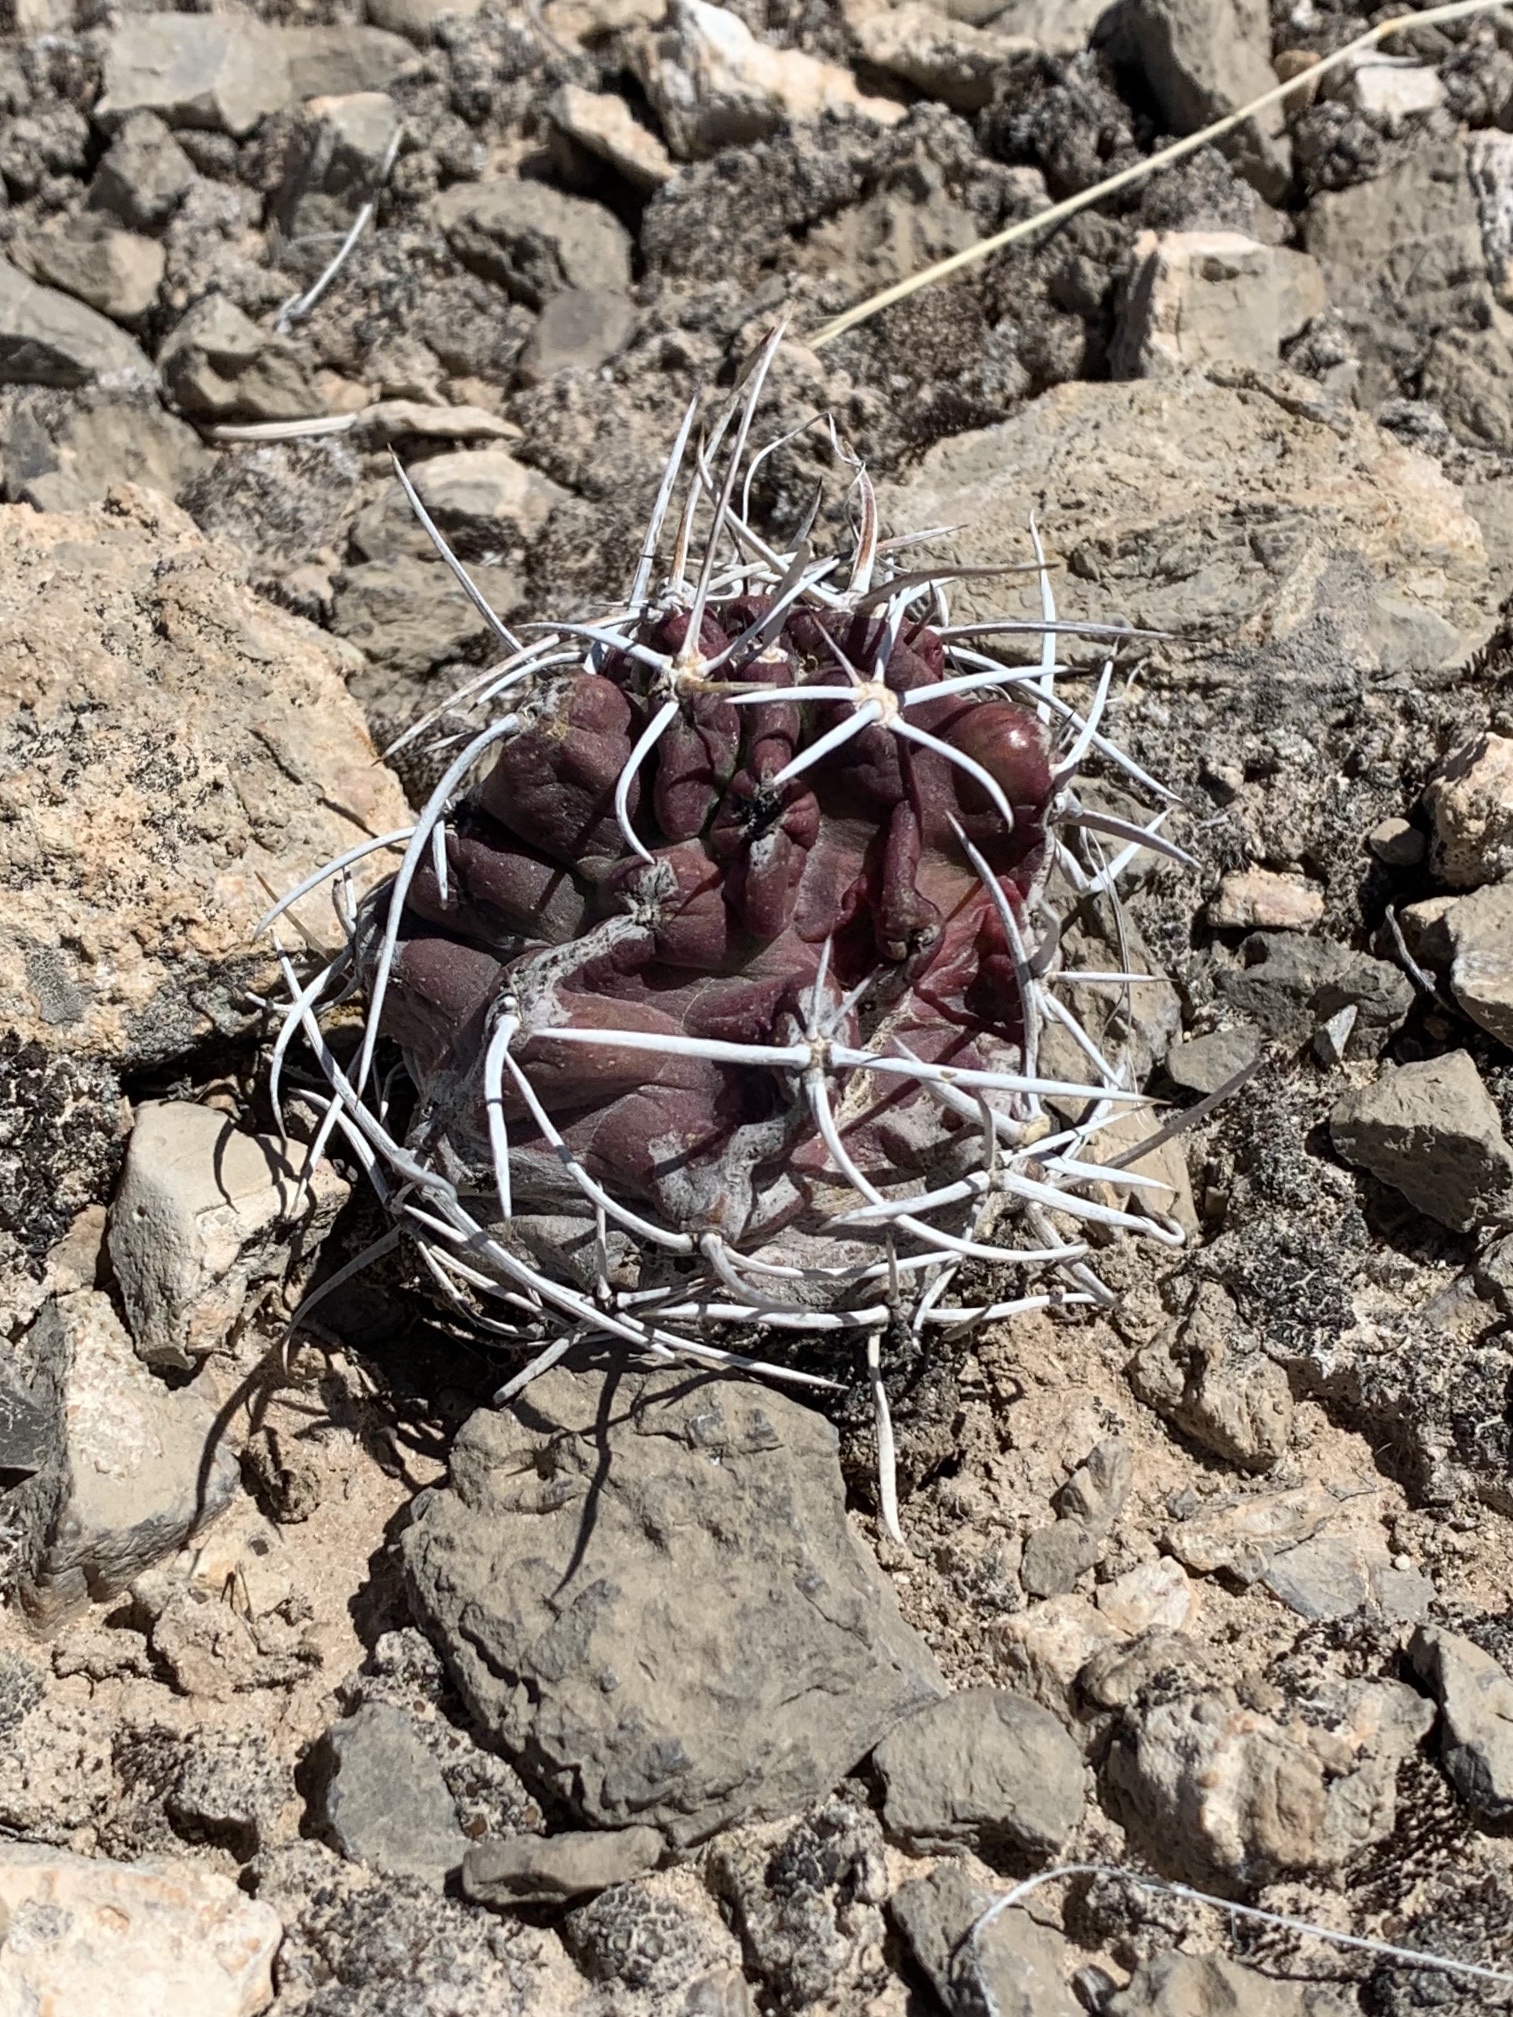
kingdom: Plantae
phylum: Tracheophyta
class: Magnoliopsida
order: Caryophyllales
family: Cactaceae
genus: Echinocereus
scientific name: Echinocereus fendleri
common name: Fendler's hedgehog cactus
